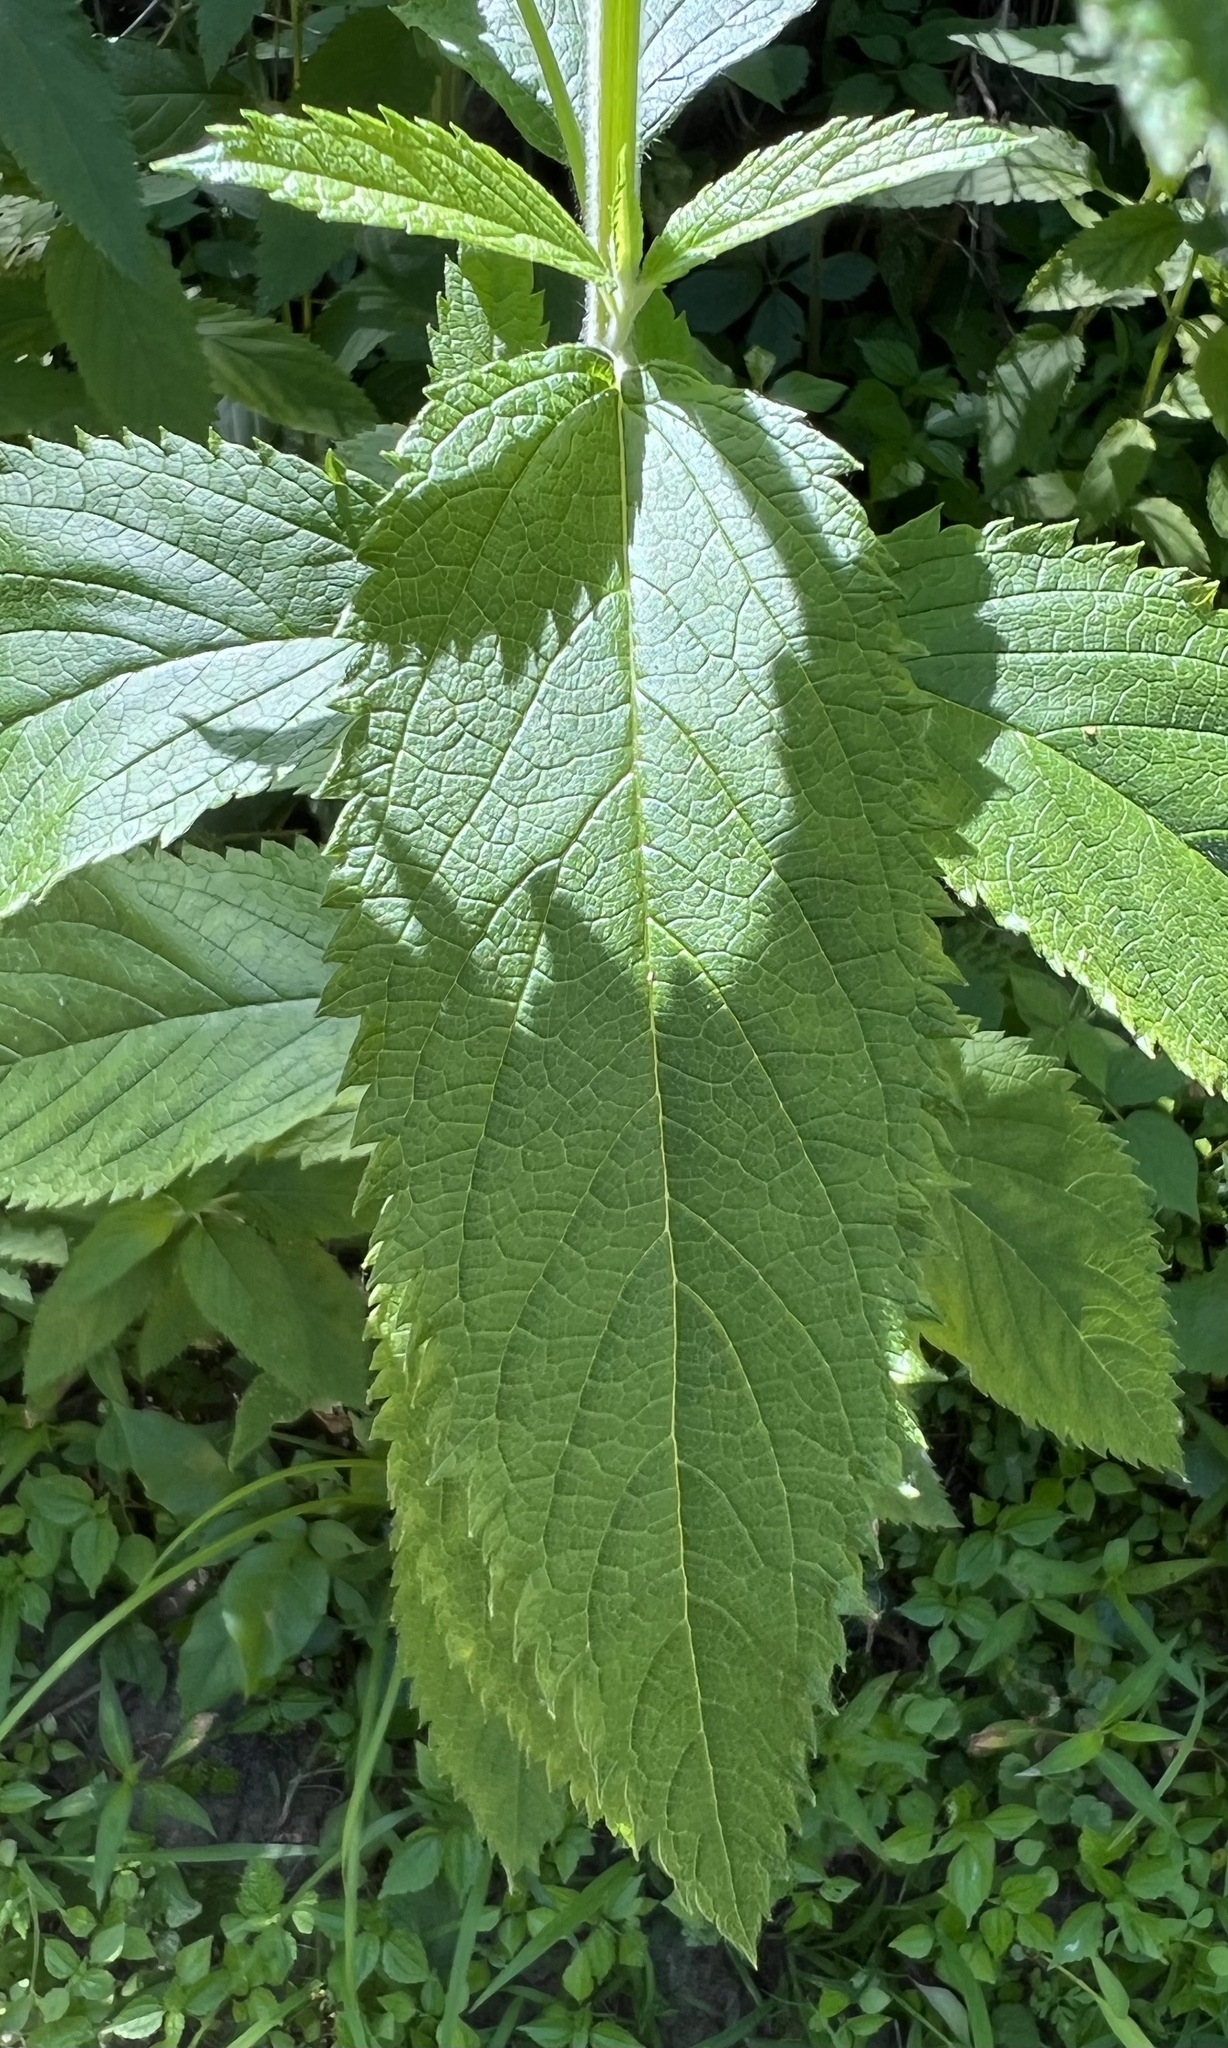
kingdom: Plantae
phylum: Tracheophyta
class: Magnoliopsida
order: Lamiales
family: Lamiaceae
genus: Teucrium
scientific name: Teucrium canadense
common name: American germander
